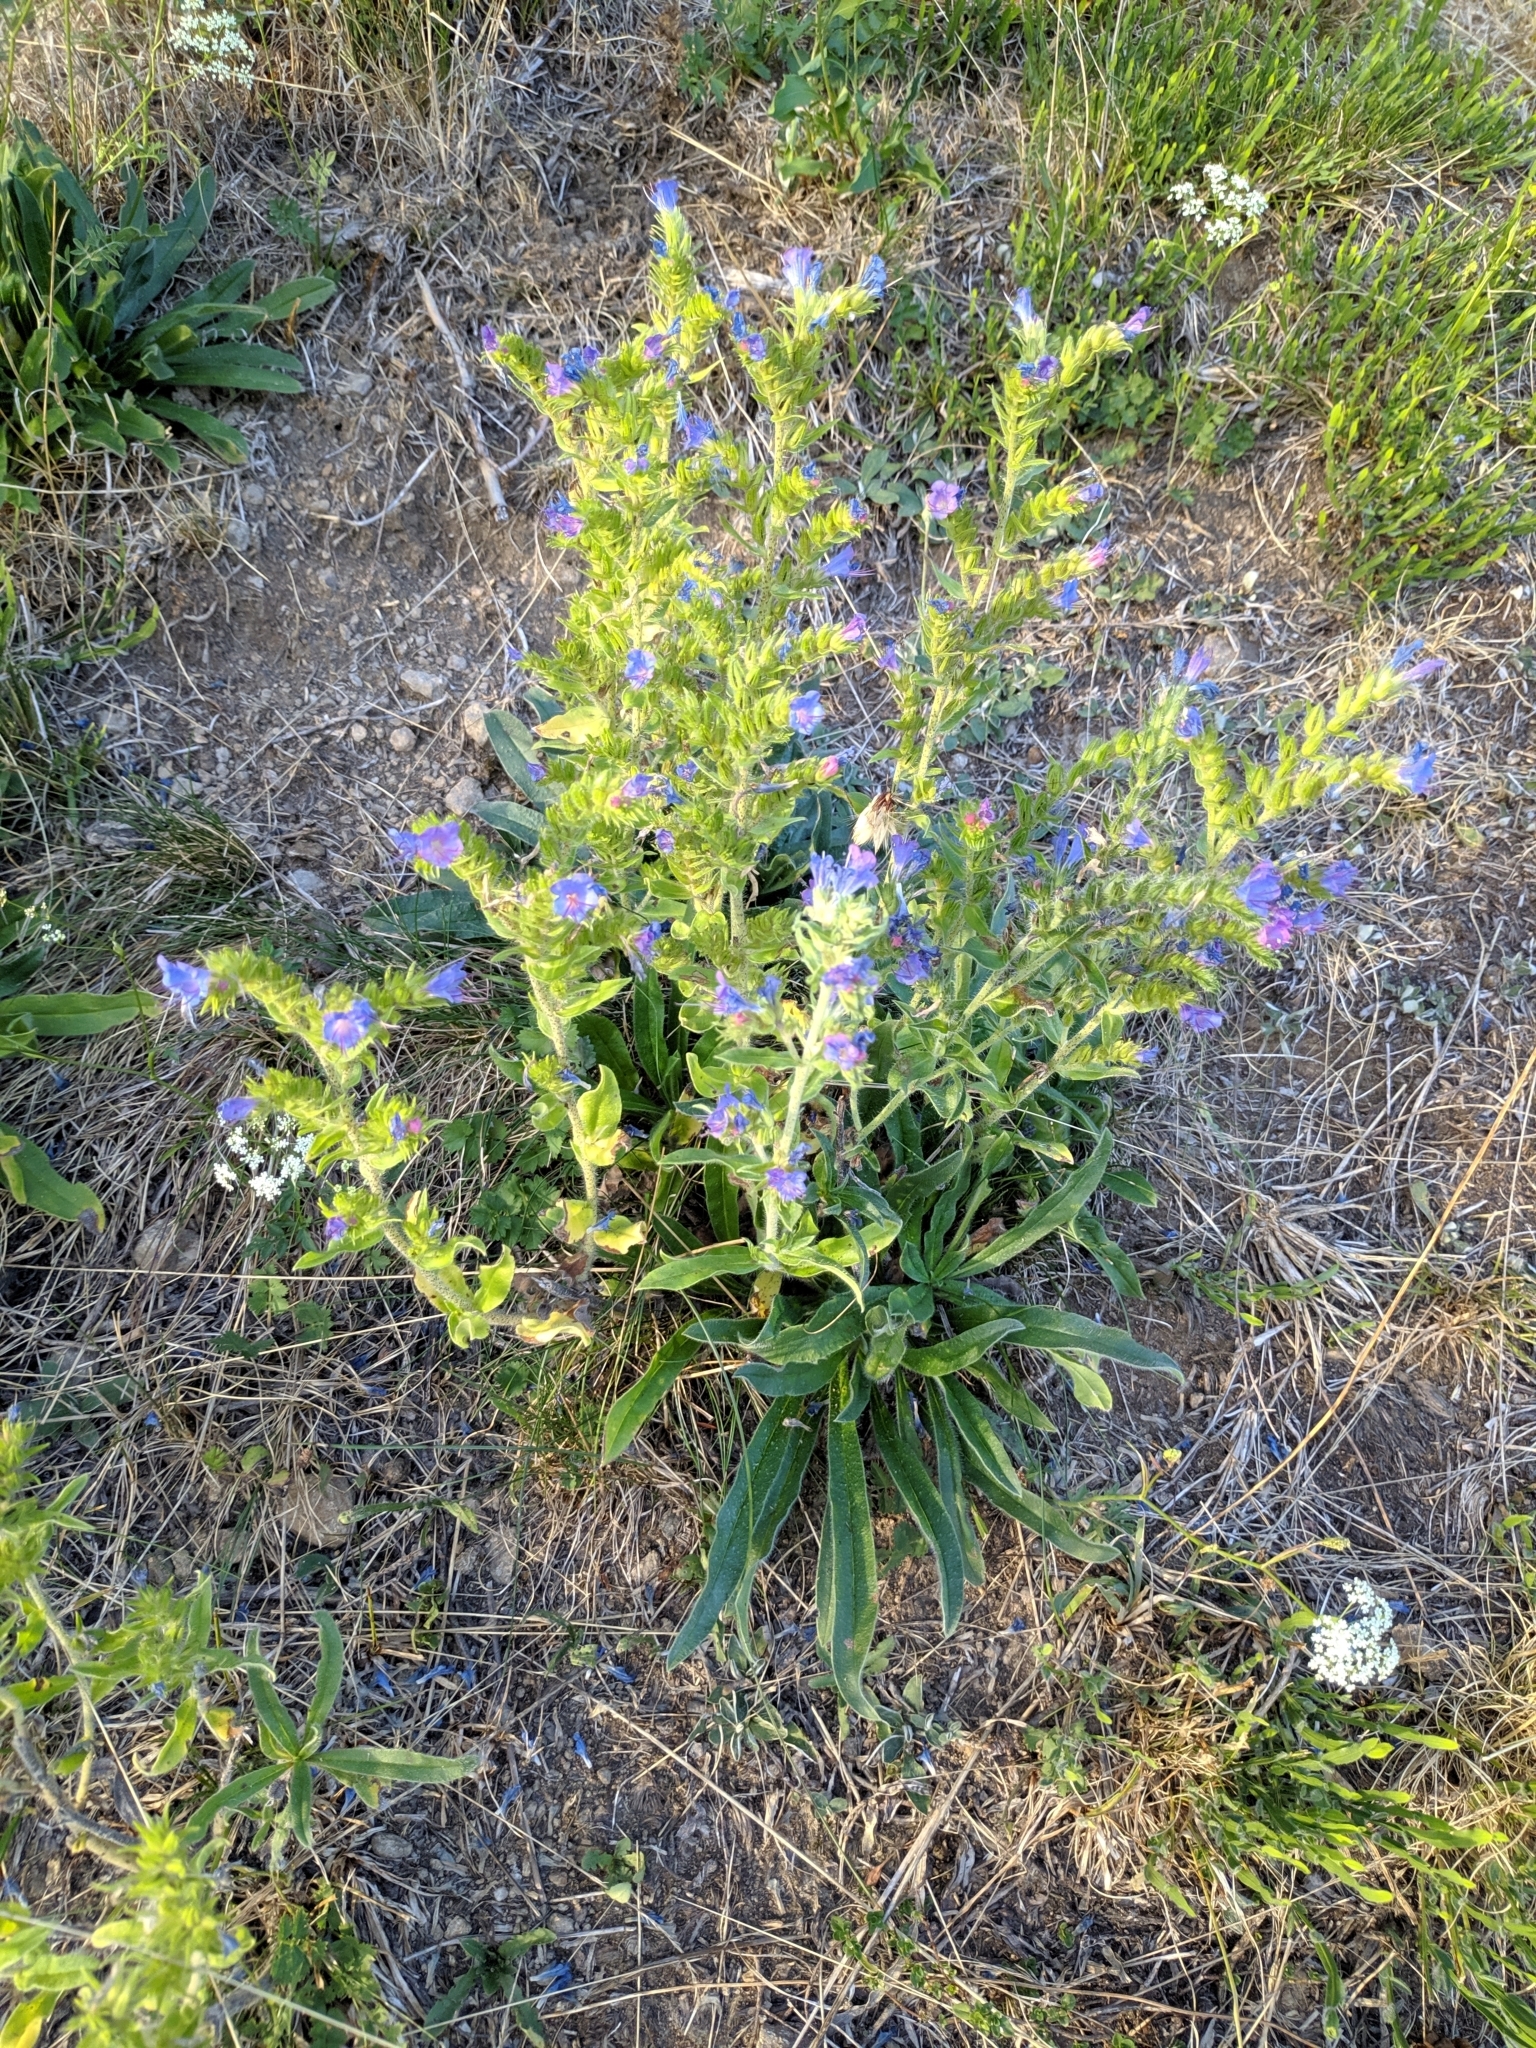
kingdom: Plantae
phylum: Tracheophyta
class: Magnoliopsida
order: Boraginales
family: Boraginaceae
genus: Echium
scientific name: Echium vulgare
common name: Common viper's bugloss
